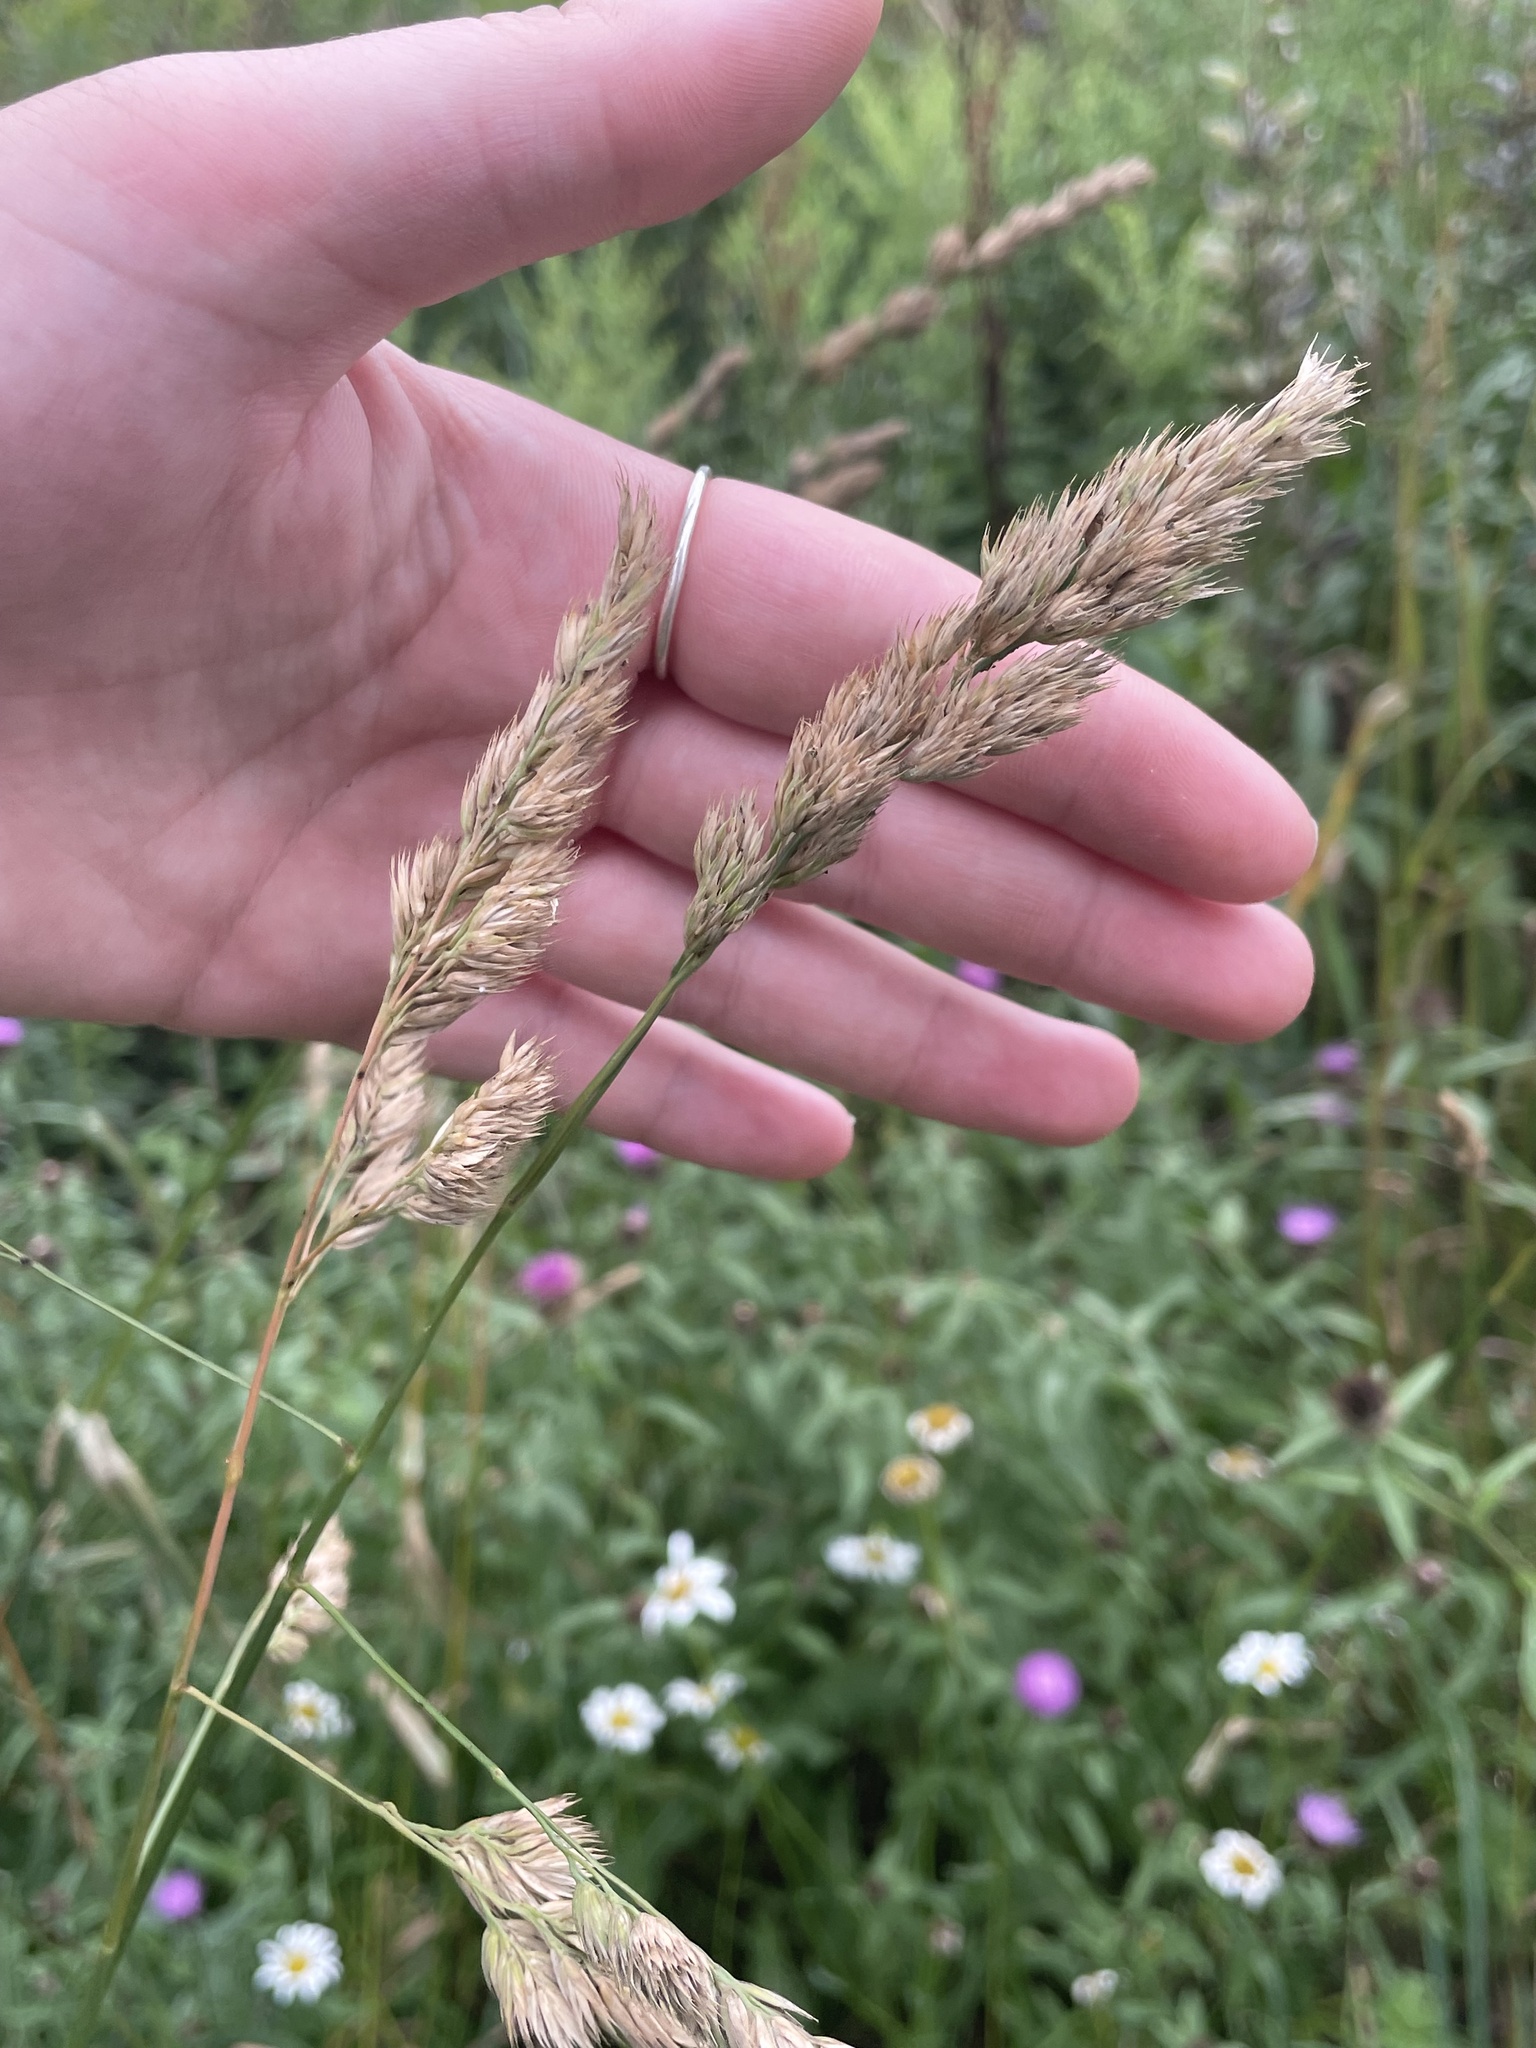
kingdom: Plantae
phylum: Tracheophyta
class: Liliopsida
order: Poales
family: Poaceae
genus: Dactylis
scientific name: Dactylis glomerata
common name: Orchardgrass
